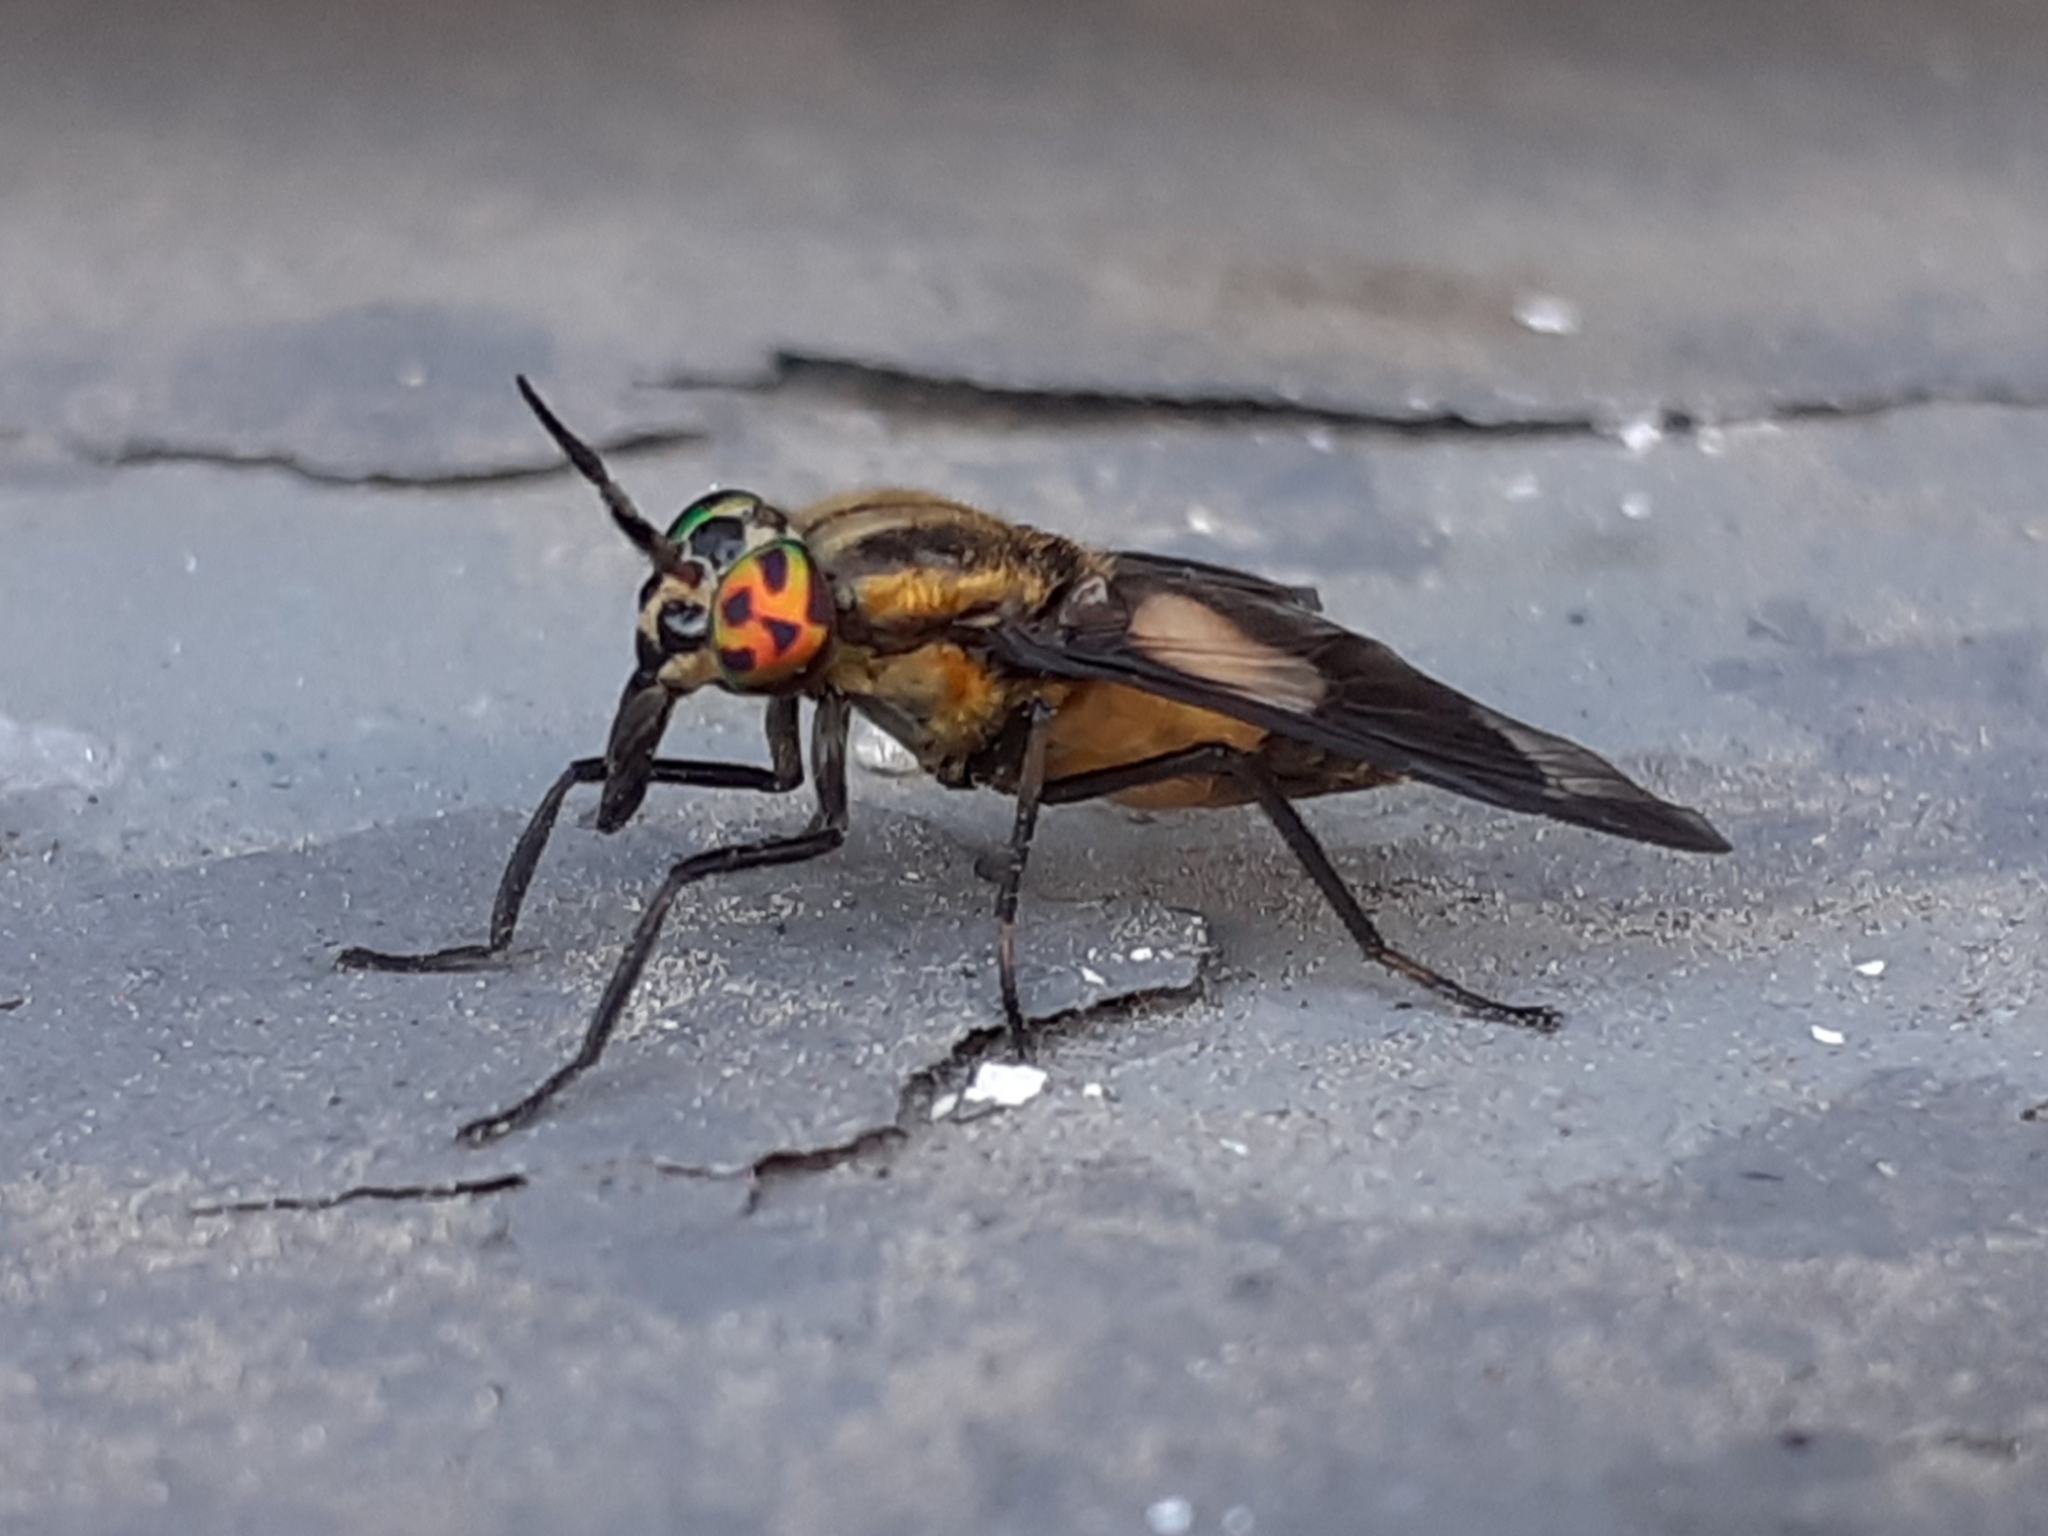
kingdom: Animalia
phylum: Arthropoda
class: Insecta
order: Diptera
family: Tabanidae
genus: Chrysops
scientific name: Chrysops caecutiens
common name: Splayed deerfly
